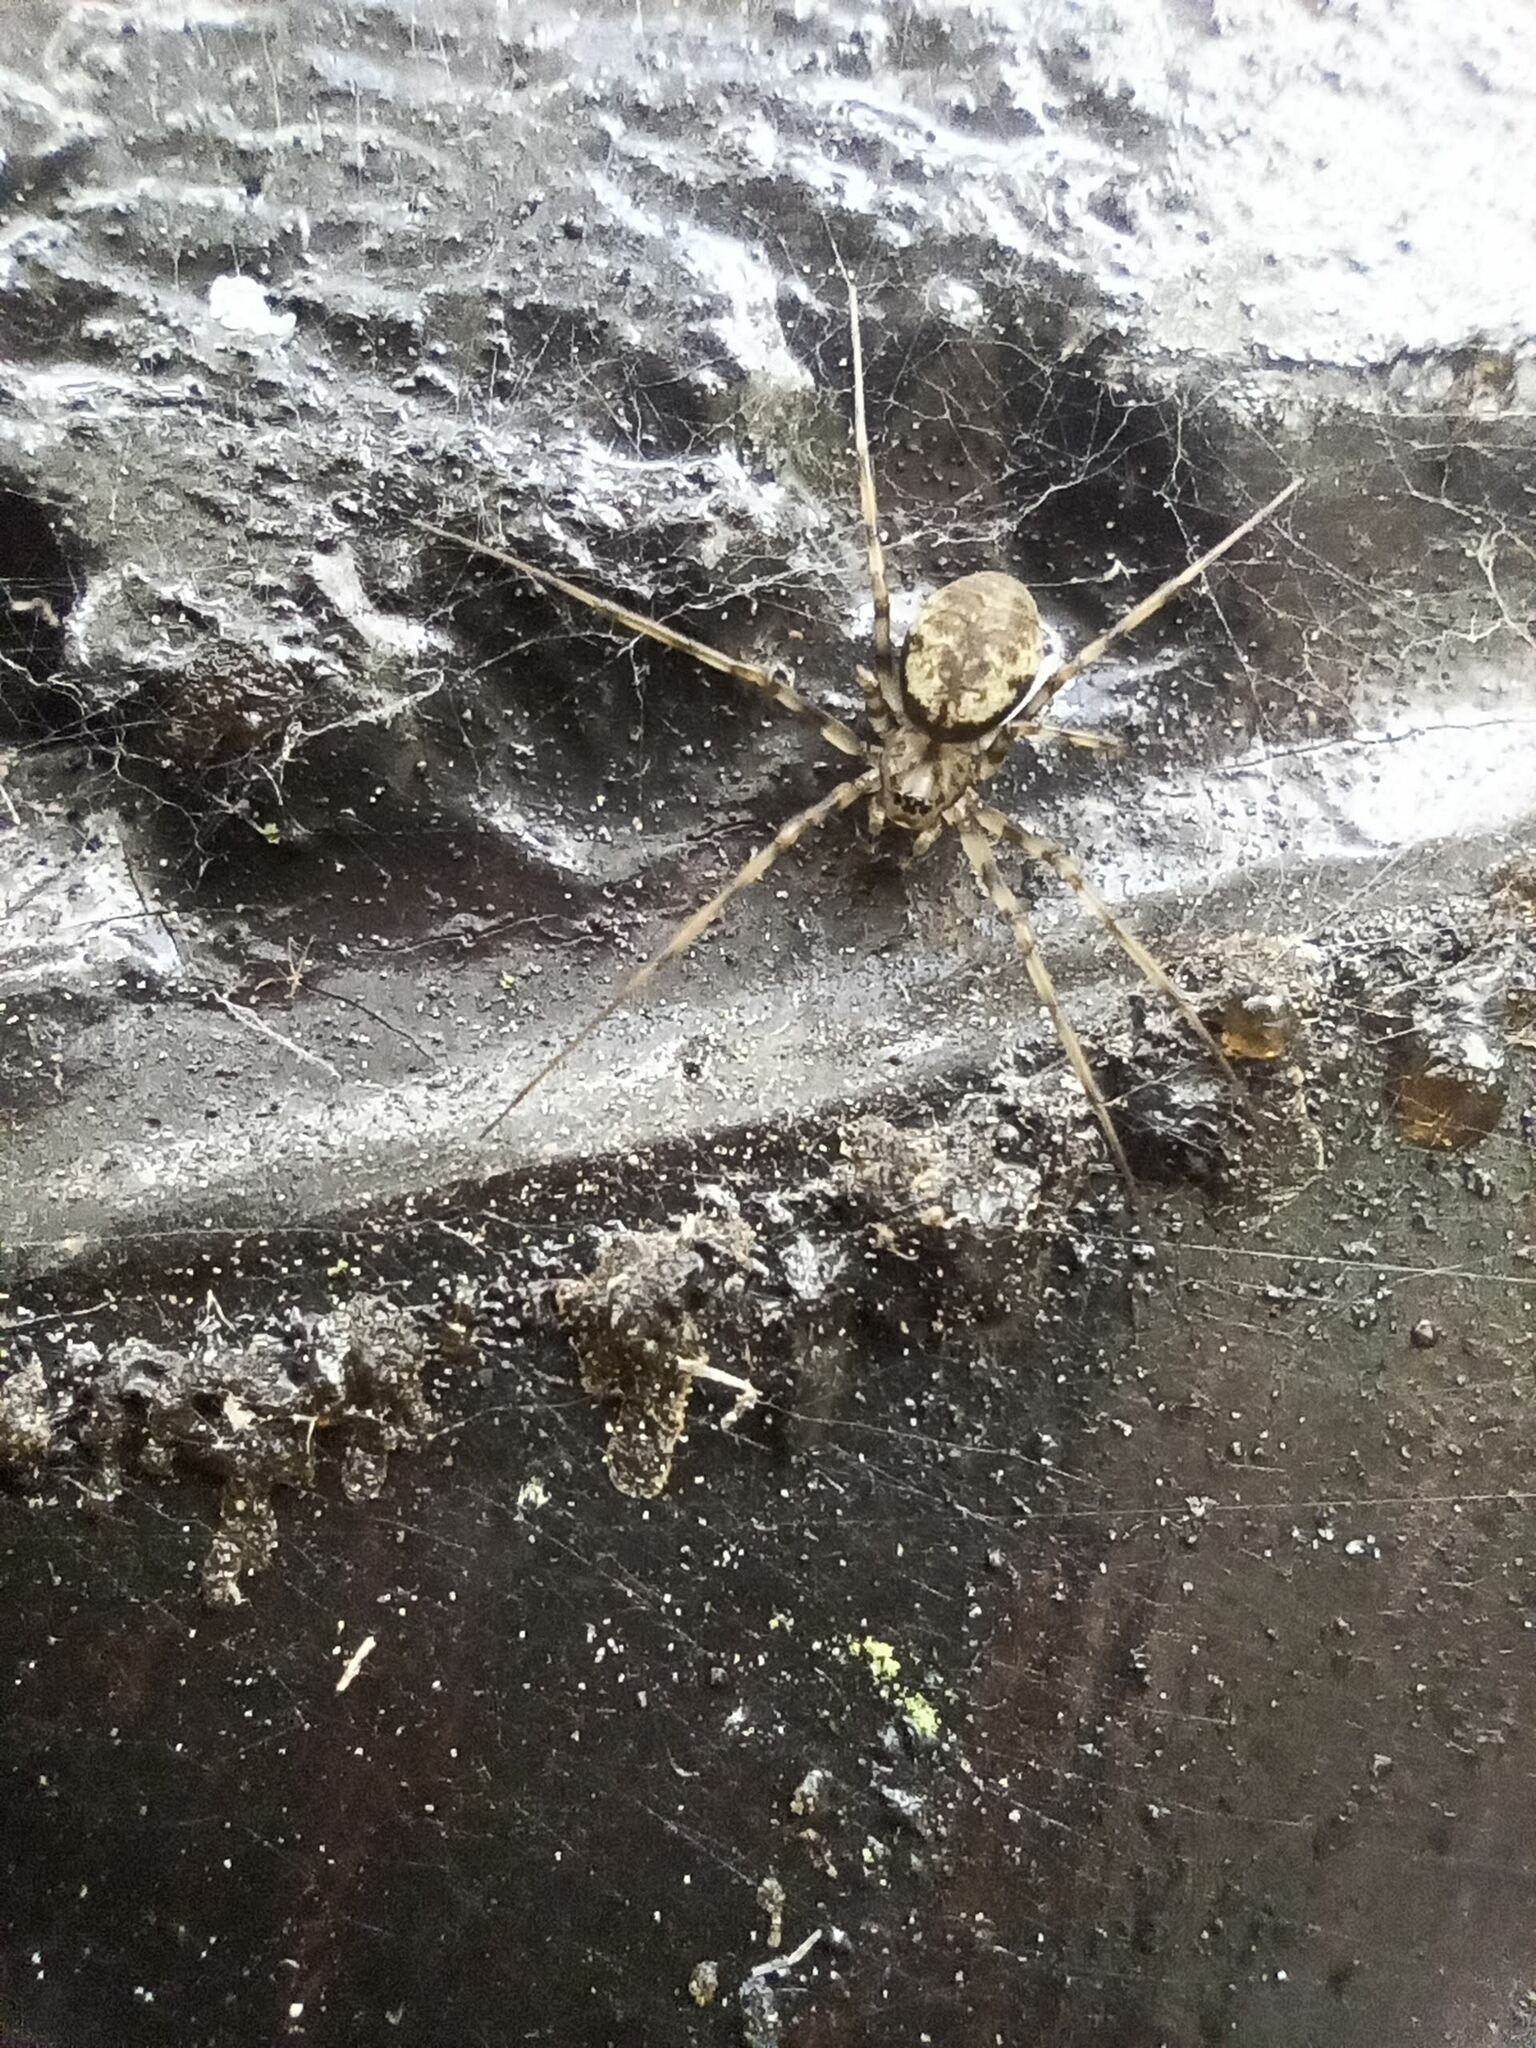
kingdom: Animalia
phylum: Arthropoda
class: Arachnida
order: Araneae
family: Linyphiidae
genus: Drapetisca
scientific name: Drapetisca socialis
